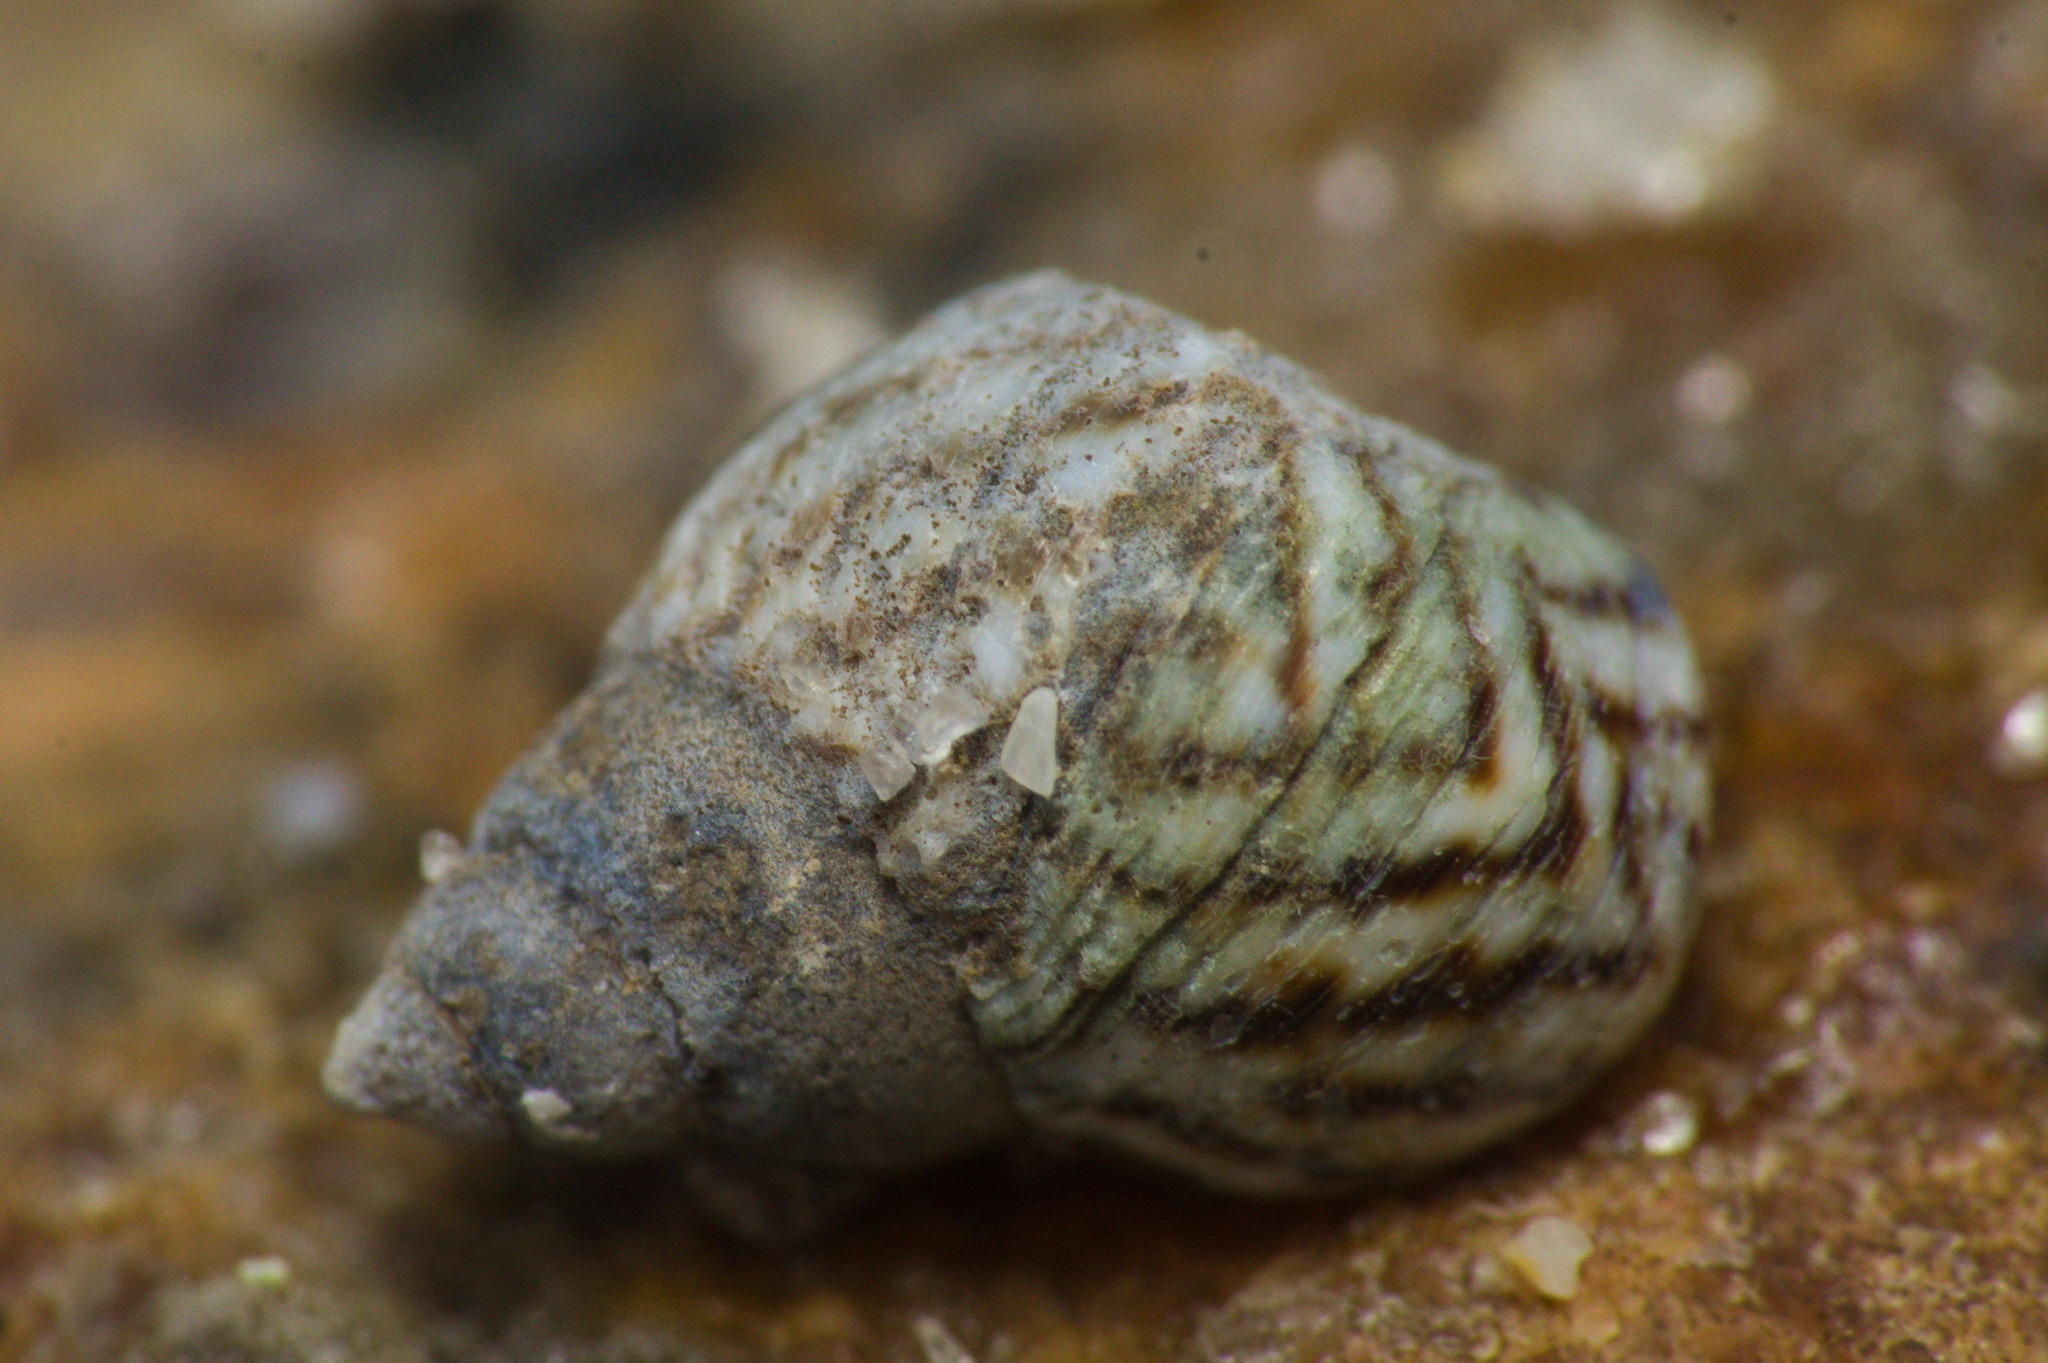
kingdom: Animalia
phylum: Mollusca
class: Gastropoda
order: Littorinimorpha
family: Littorinidae
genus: Echinolittorina
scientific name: Echinolittorina lineolata
